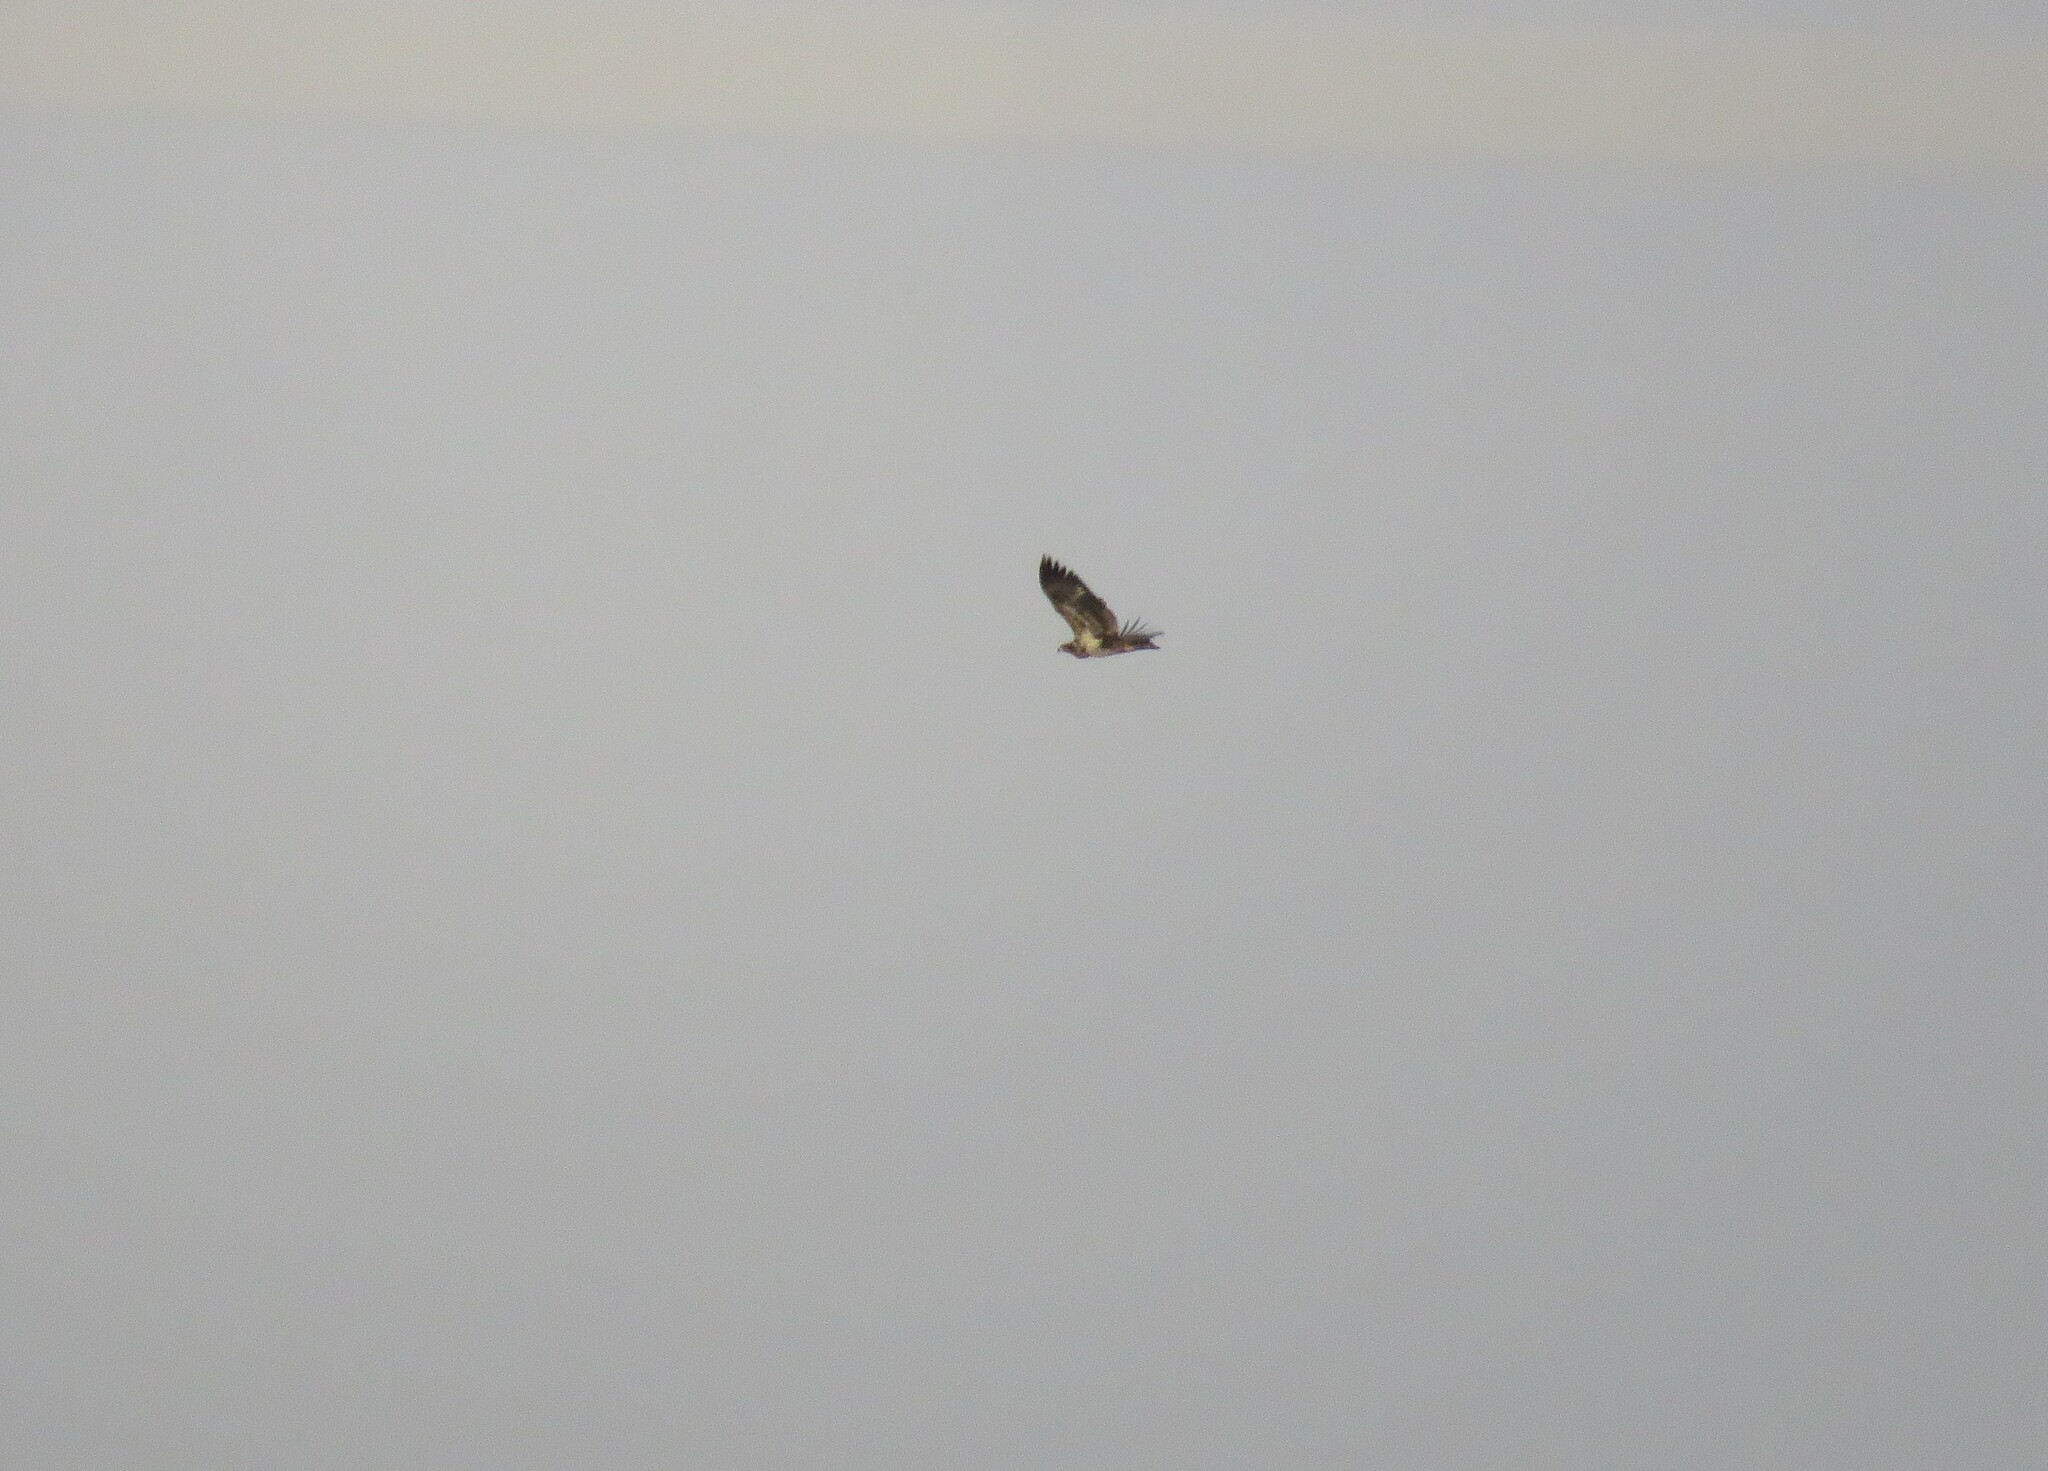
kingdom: Animalia
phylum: Chordata
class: Aves
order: Accipitriformes
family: Accipitridae
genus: Haliaeetus
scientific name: Haliaeetus leucocephalus
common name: Bald eagle
